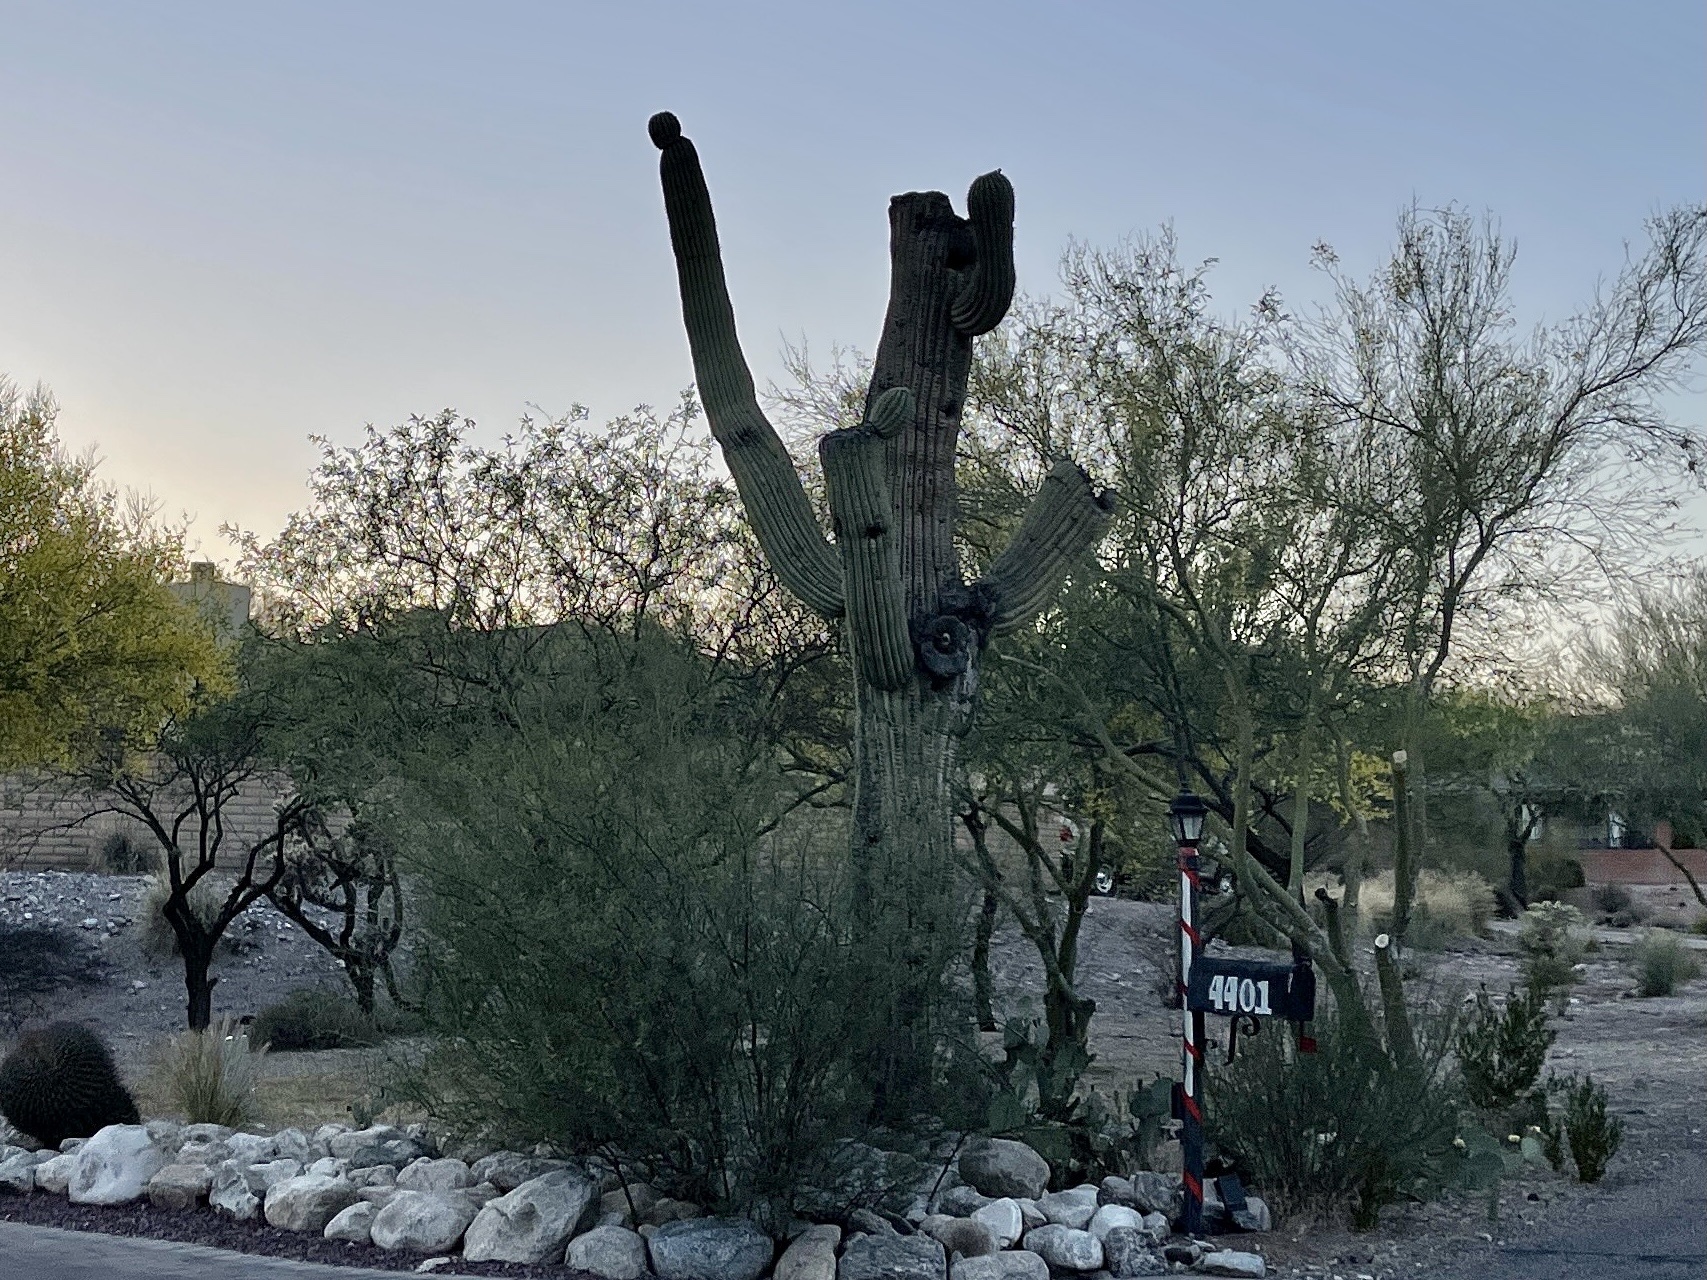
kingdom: Plantae
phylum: Tracheophyta
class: Magnoliopsida
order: Caryophyllales
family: Cactaceae
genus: Carnegiea
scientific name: Carnegiea gigantea
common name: Saguaro
